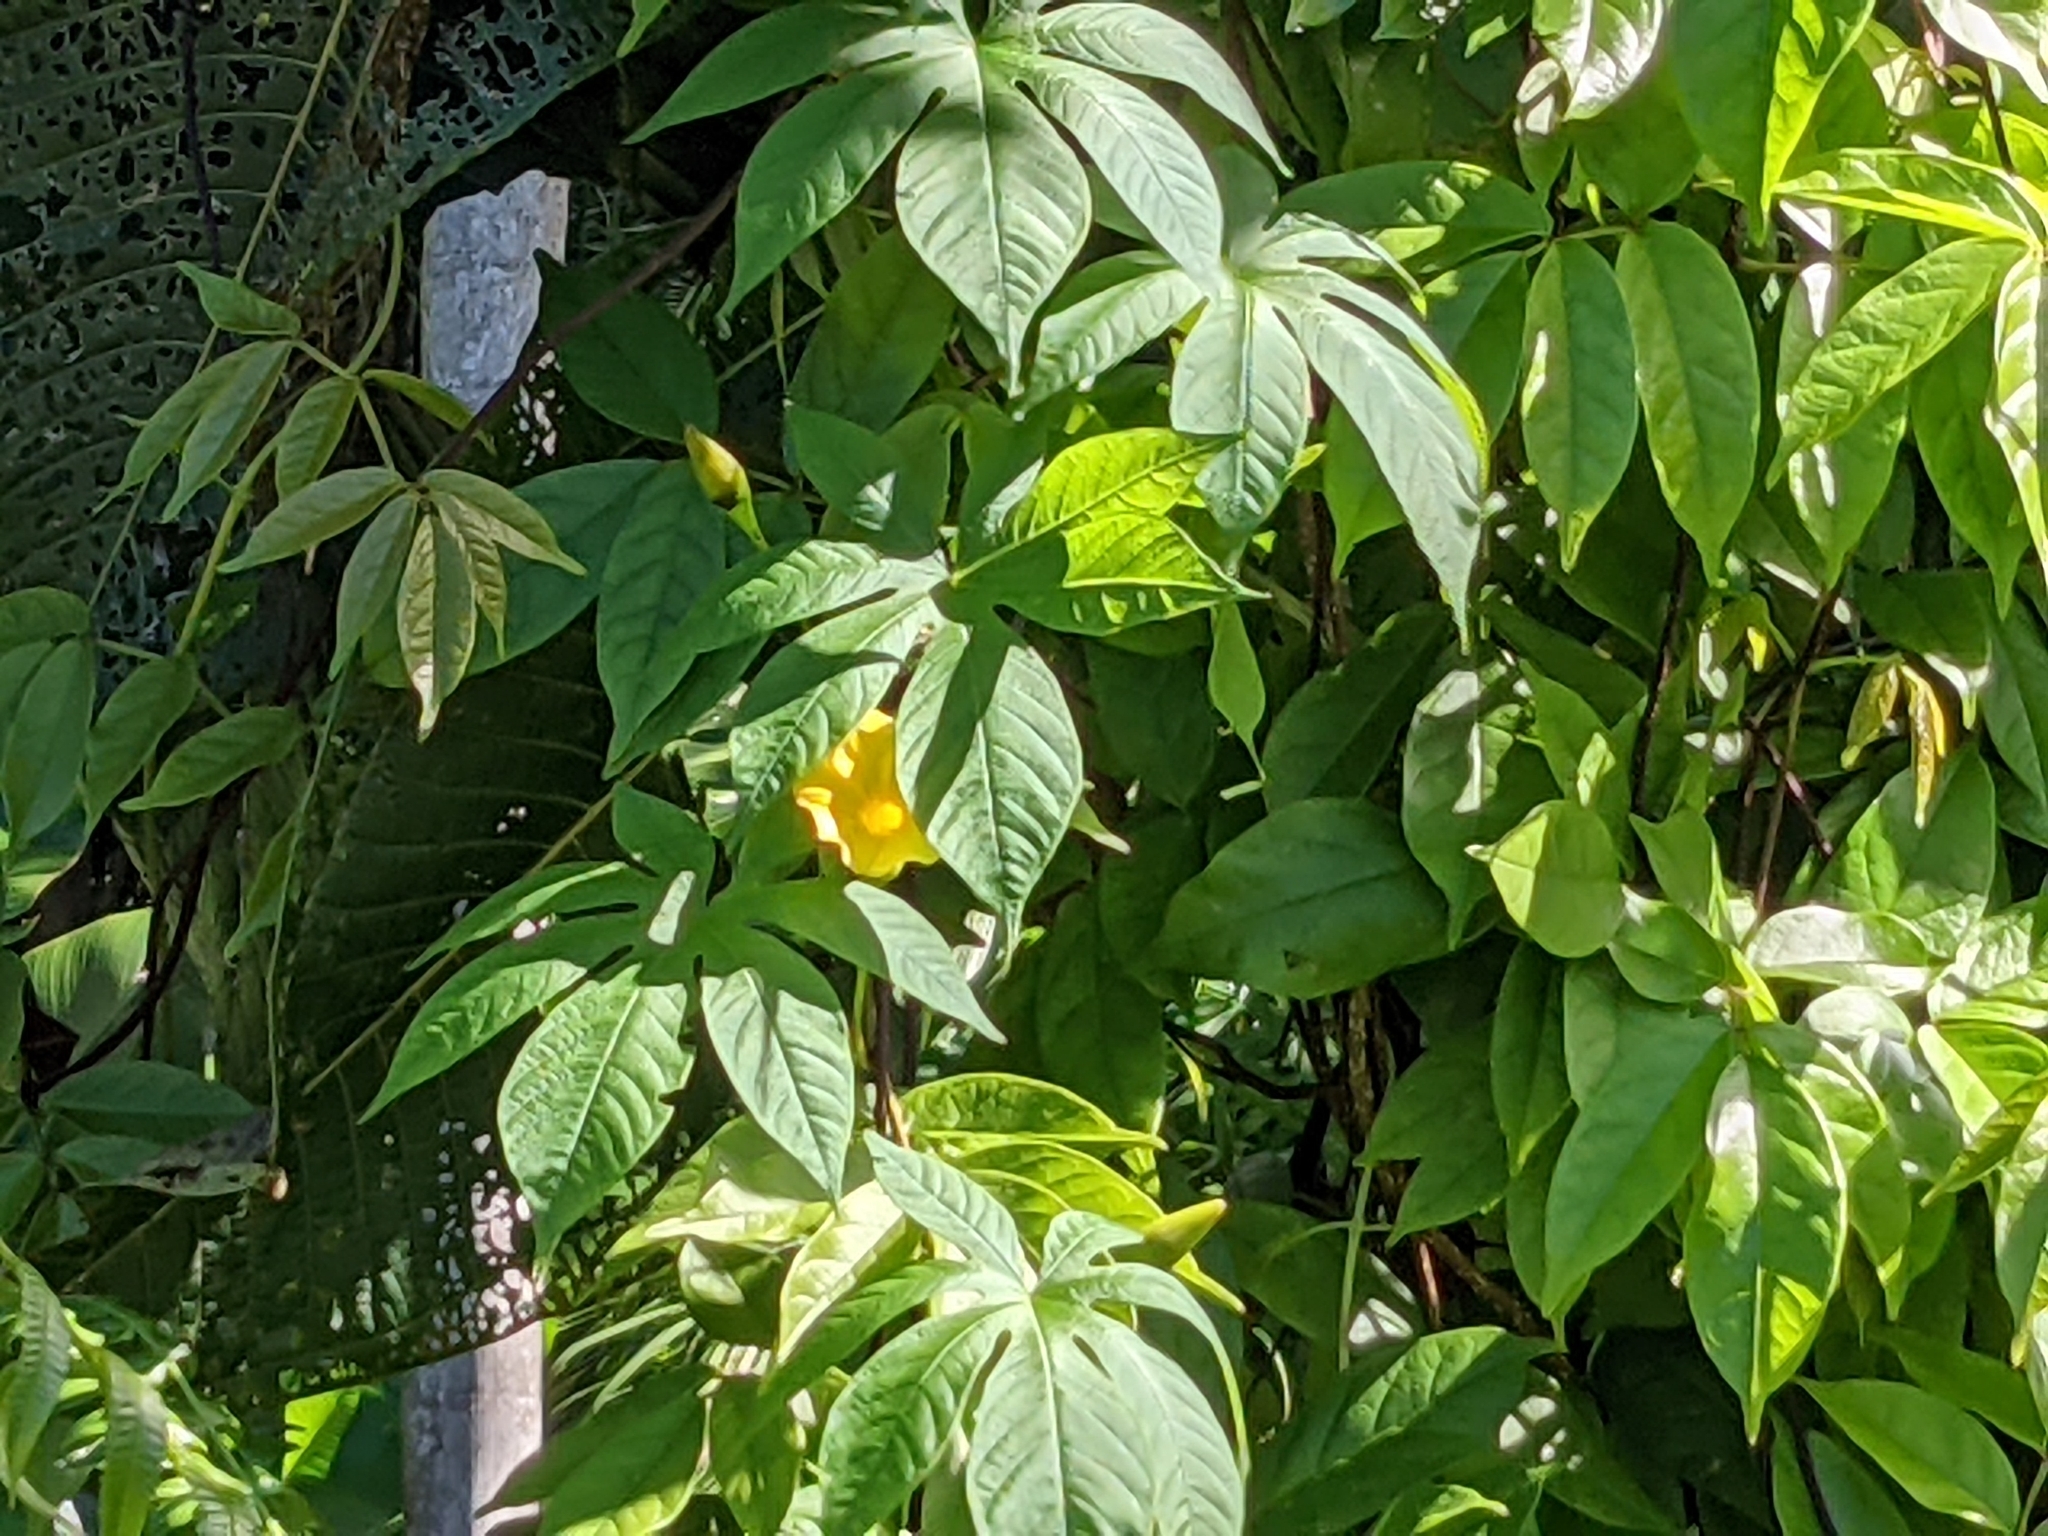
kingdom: Plantae
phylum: Tracheophyta
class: Magnoliopsida
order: Solanales
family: Convolvulaceae
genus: Distimake
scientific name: Distimake tuberosus
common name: Spanish arborvine
